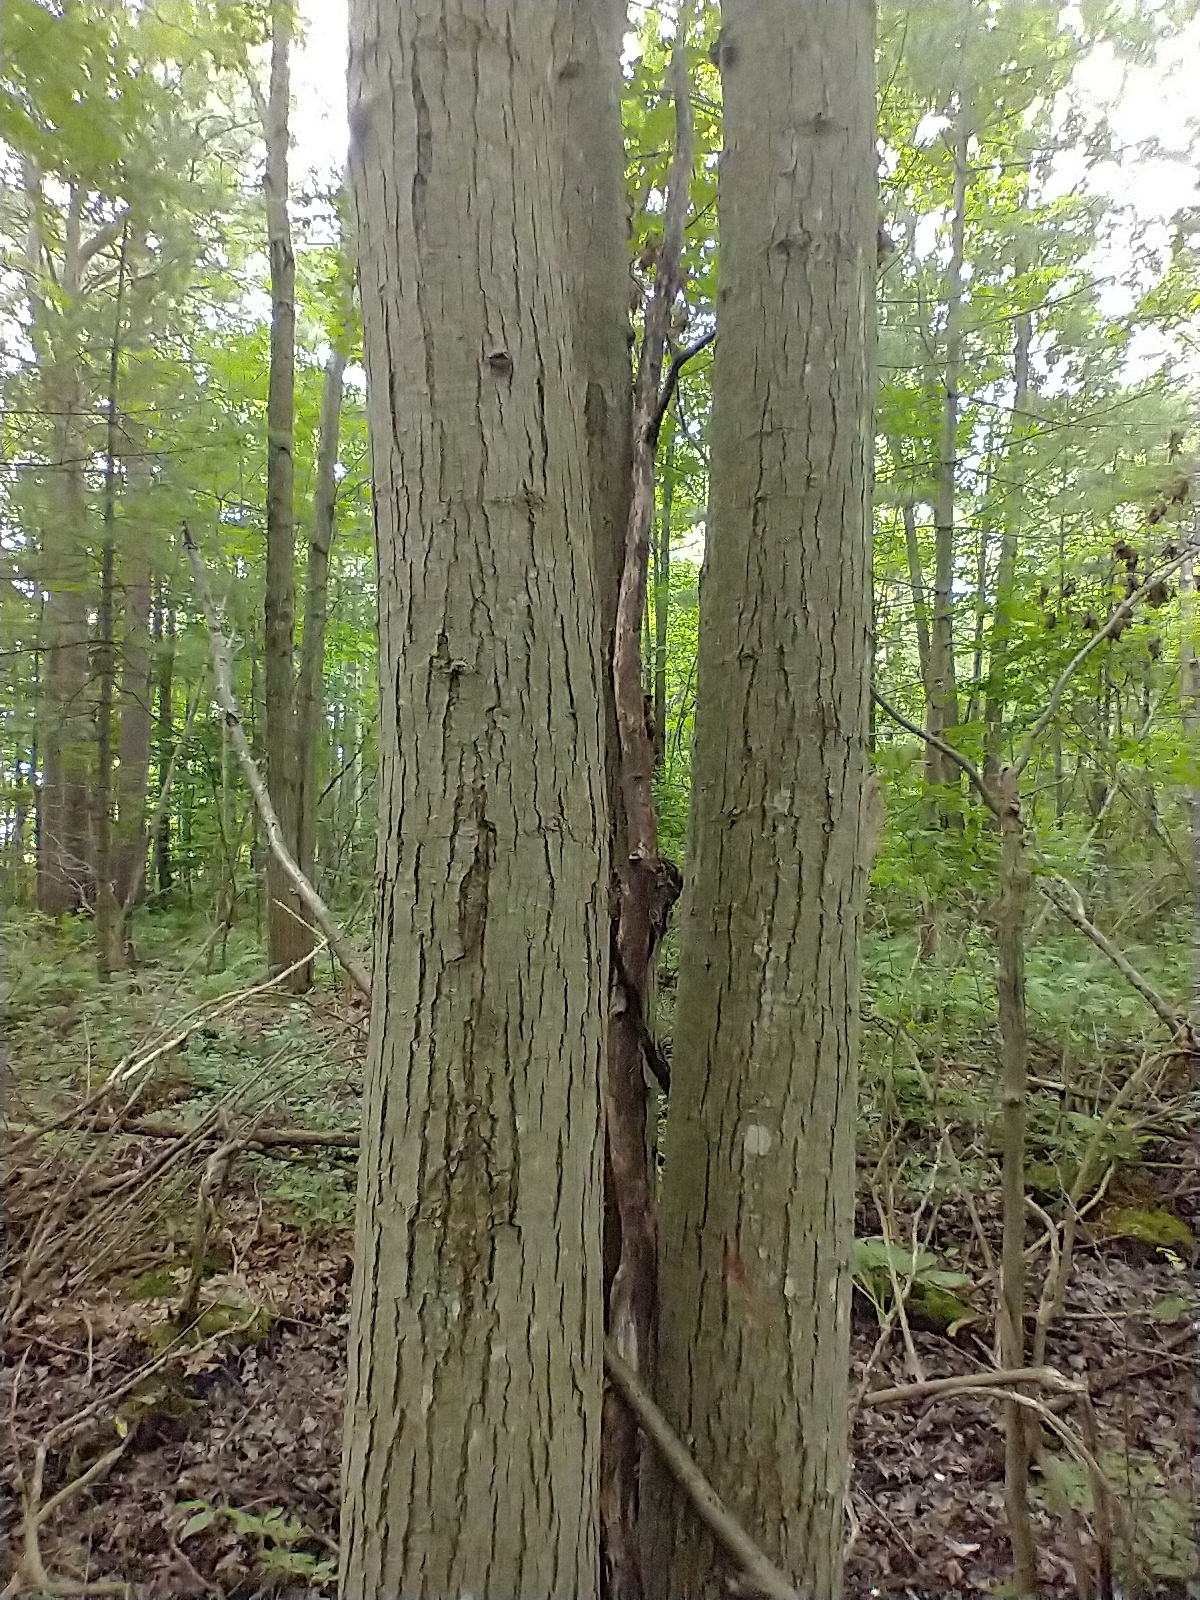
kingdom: Plantae
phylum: Tracheophyta
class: Magnoliopsida
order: Sapindales
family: Sapindaceae
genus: Acer
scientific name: Acer rubrum
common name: Red maple
